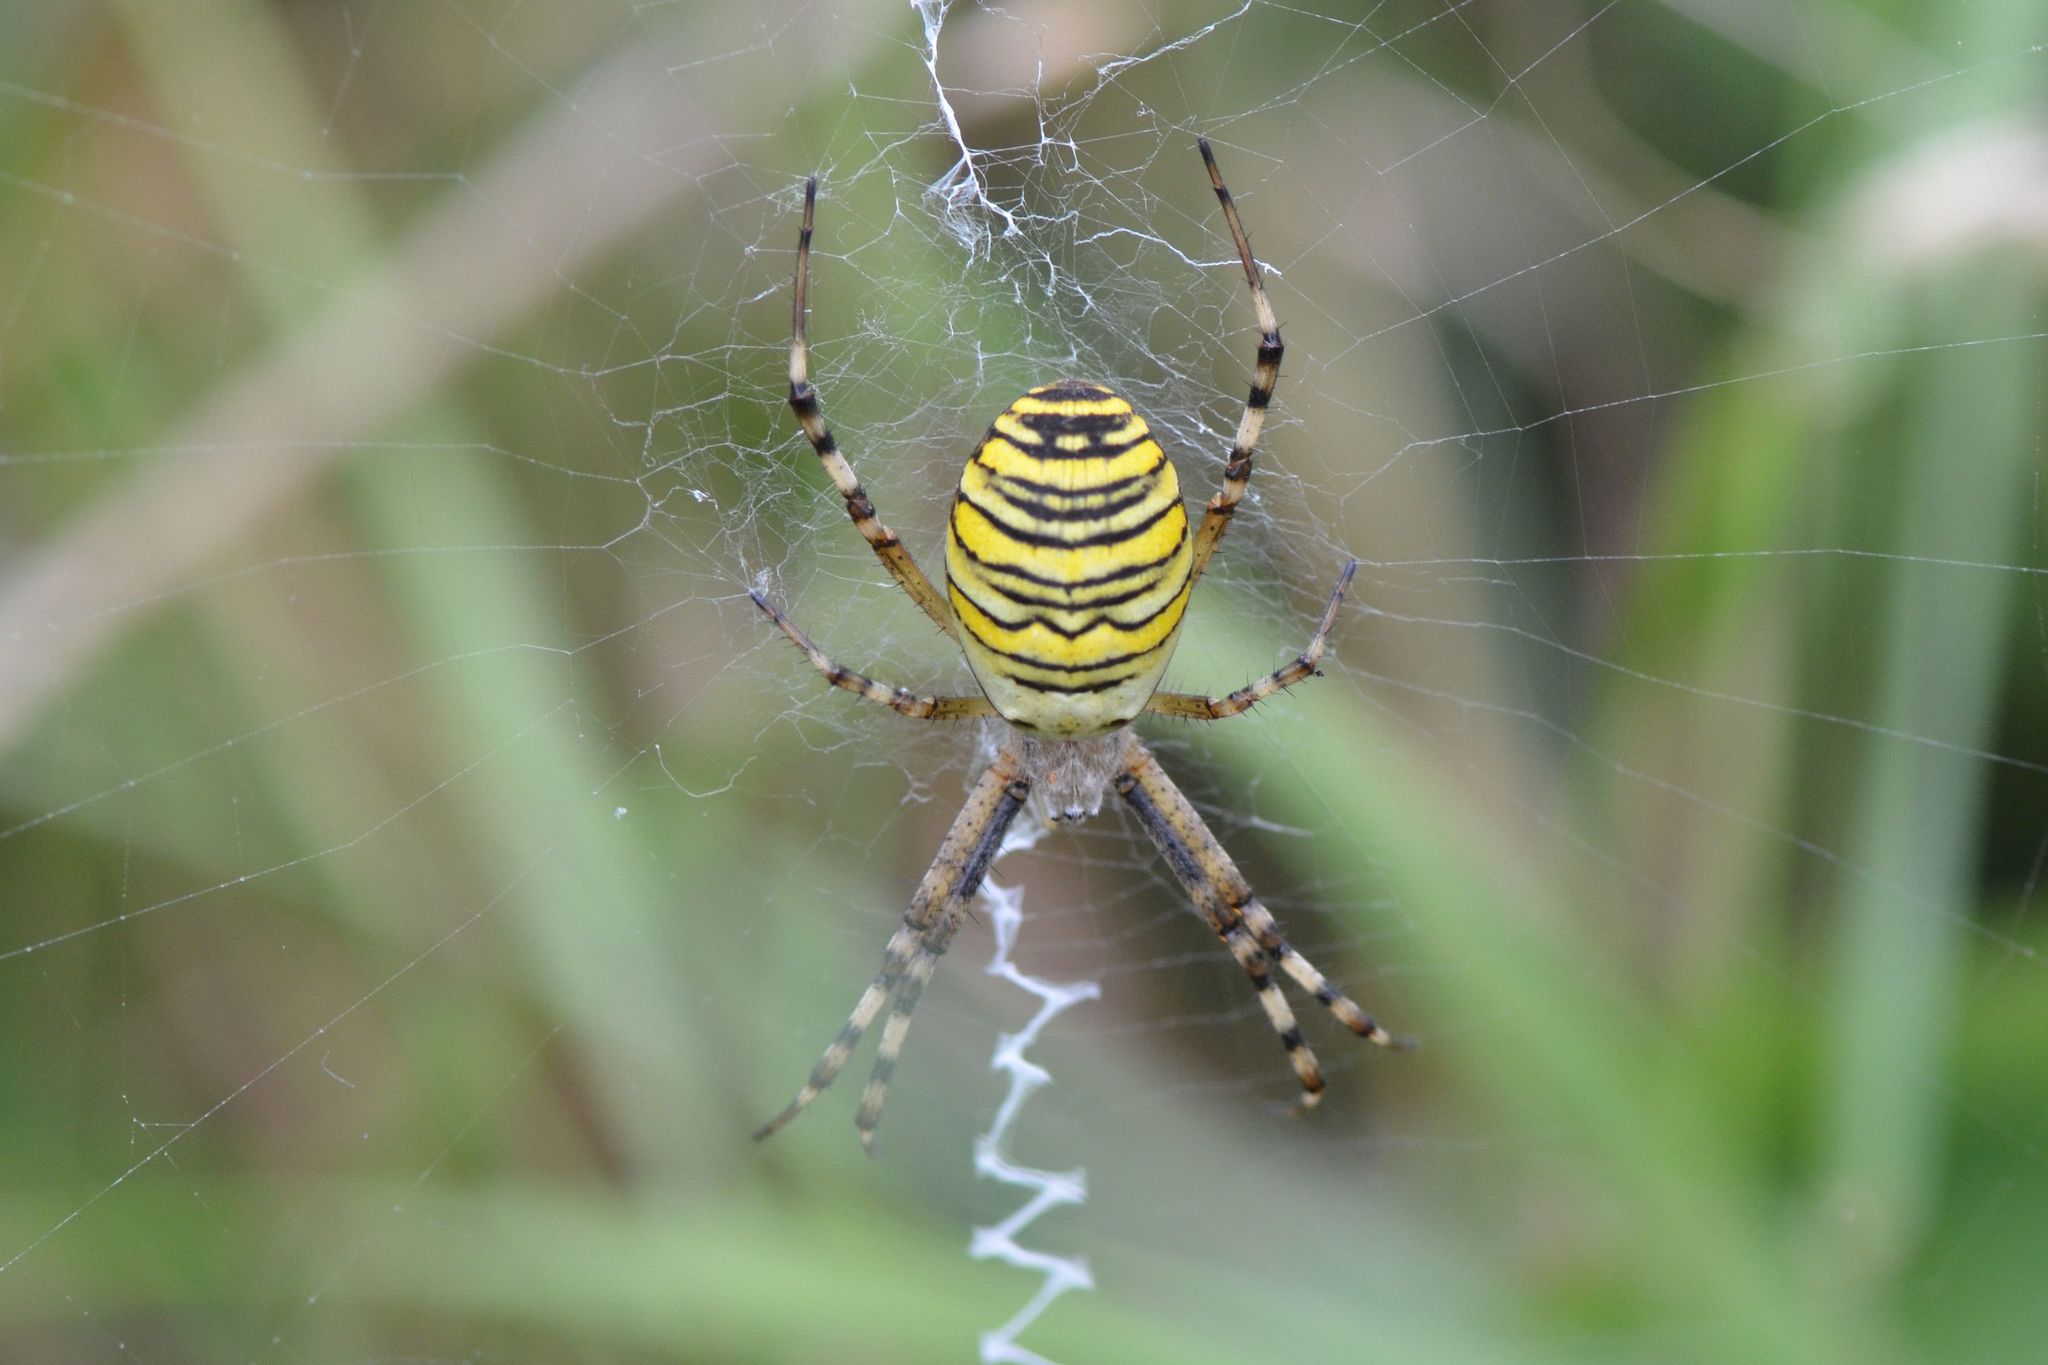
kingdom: Animalia
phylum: Arthropoda
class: Arachnida
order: Araneae
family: Araneidae
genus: Argiope
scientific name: Argiope bruennichi
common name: Wasp spider
